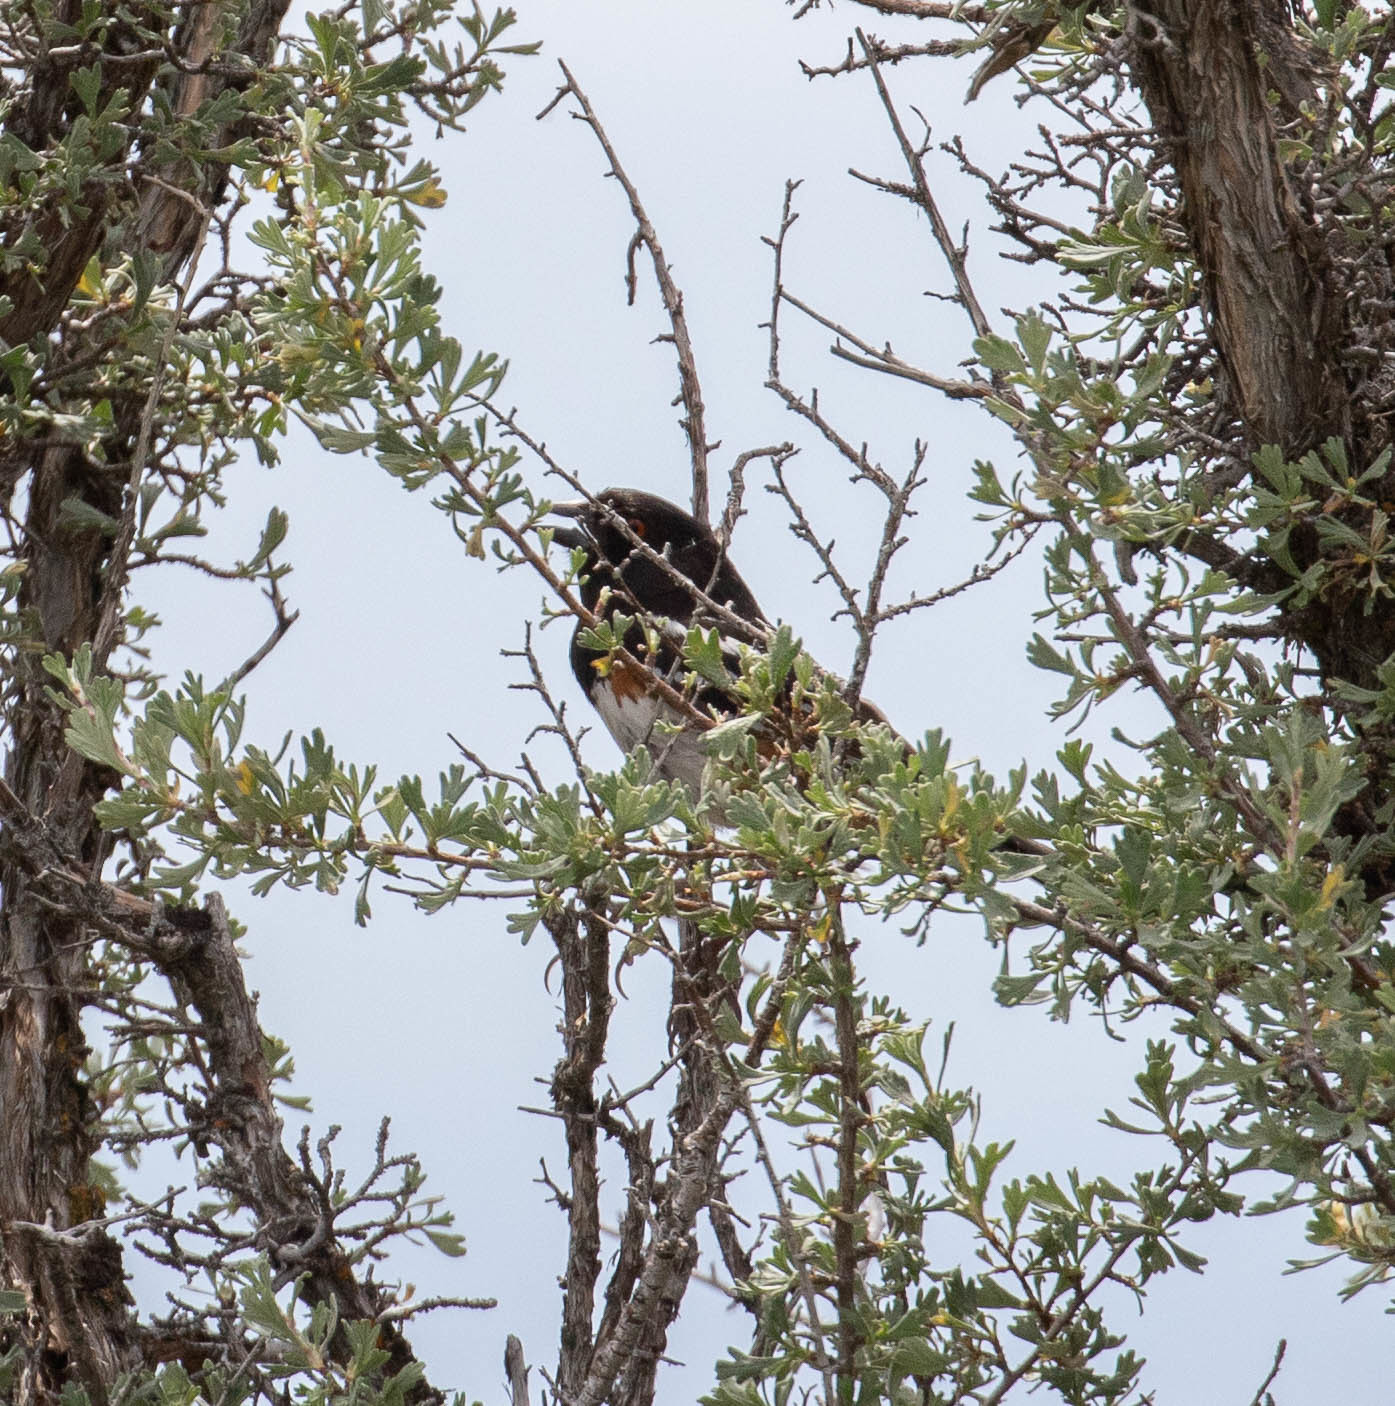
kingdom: Animalia
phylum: Chordata
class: Aves
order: Passeriformes
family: Passerellidae
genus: Pipilo
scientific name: Pipilo maculatus
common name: Spotted towhee
